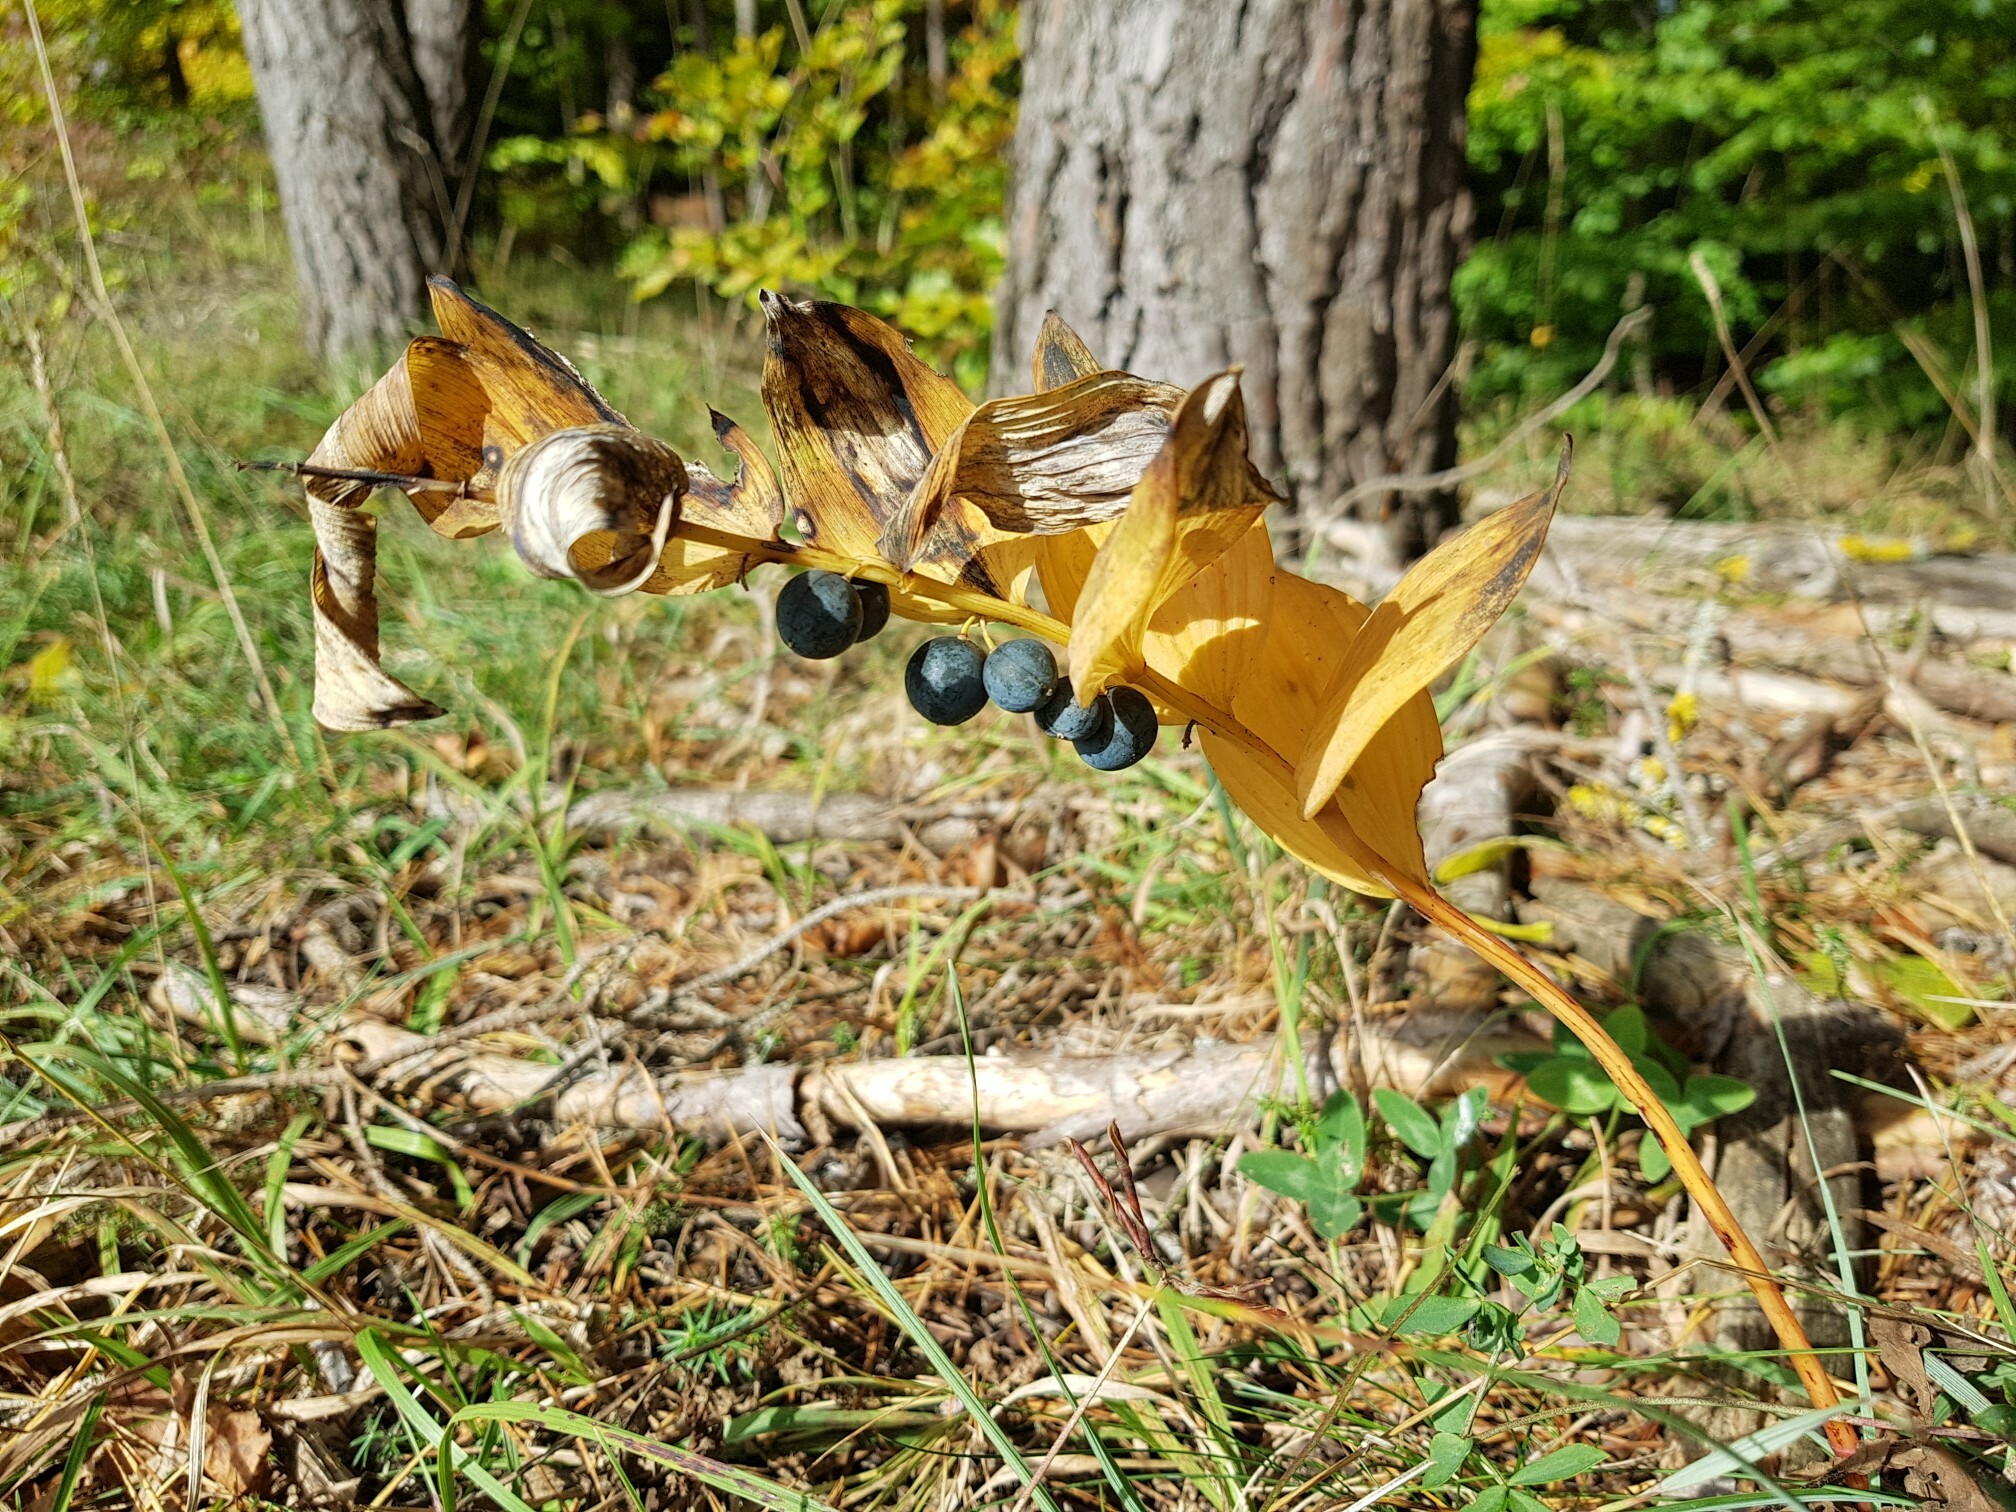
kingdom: Plantae
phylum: Tracheophyta
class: Liliopsida
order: Asparagales
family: Asparagaceae
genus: Polygonatum
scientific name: Polygonatum odoratum
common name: Angular solomon's-seal
